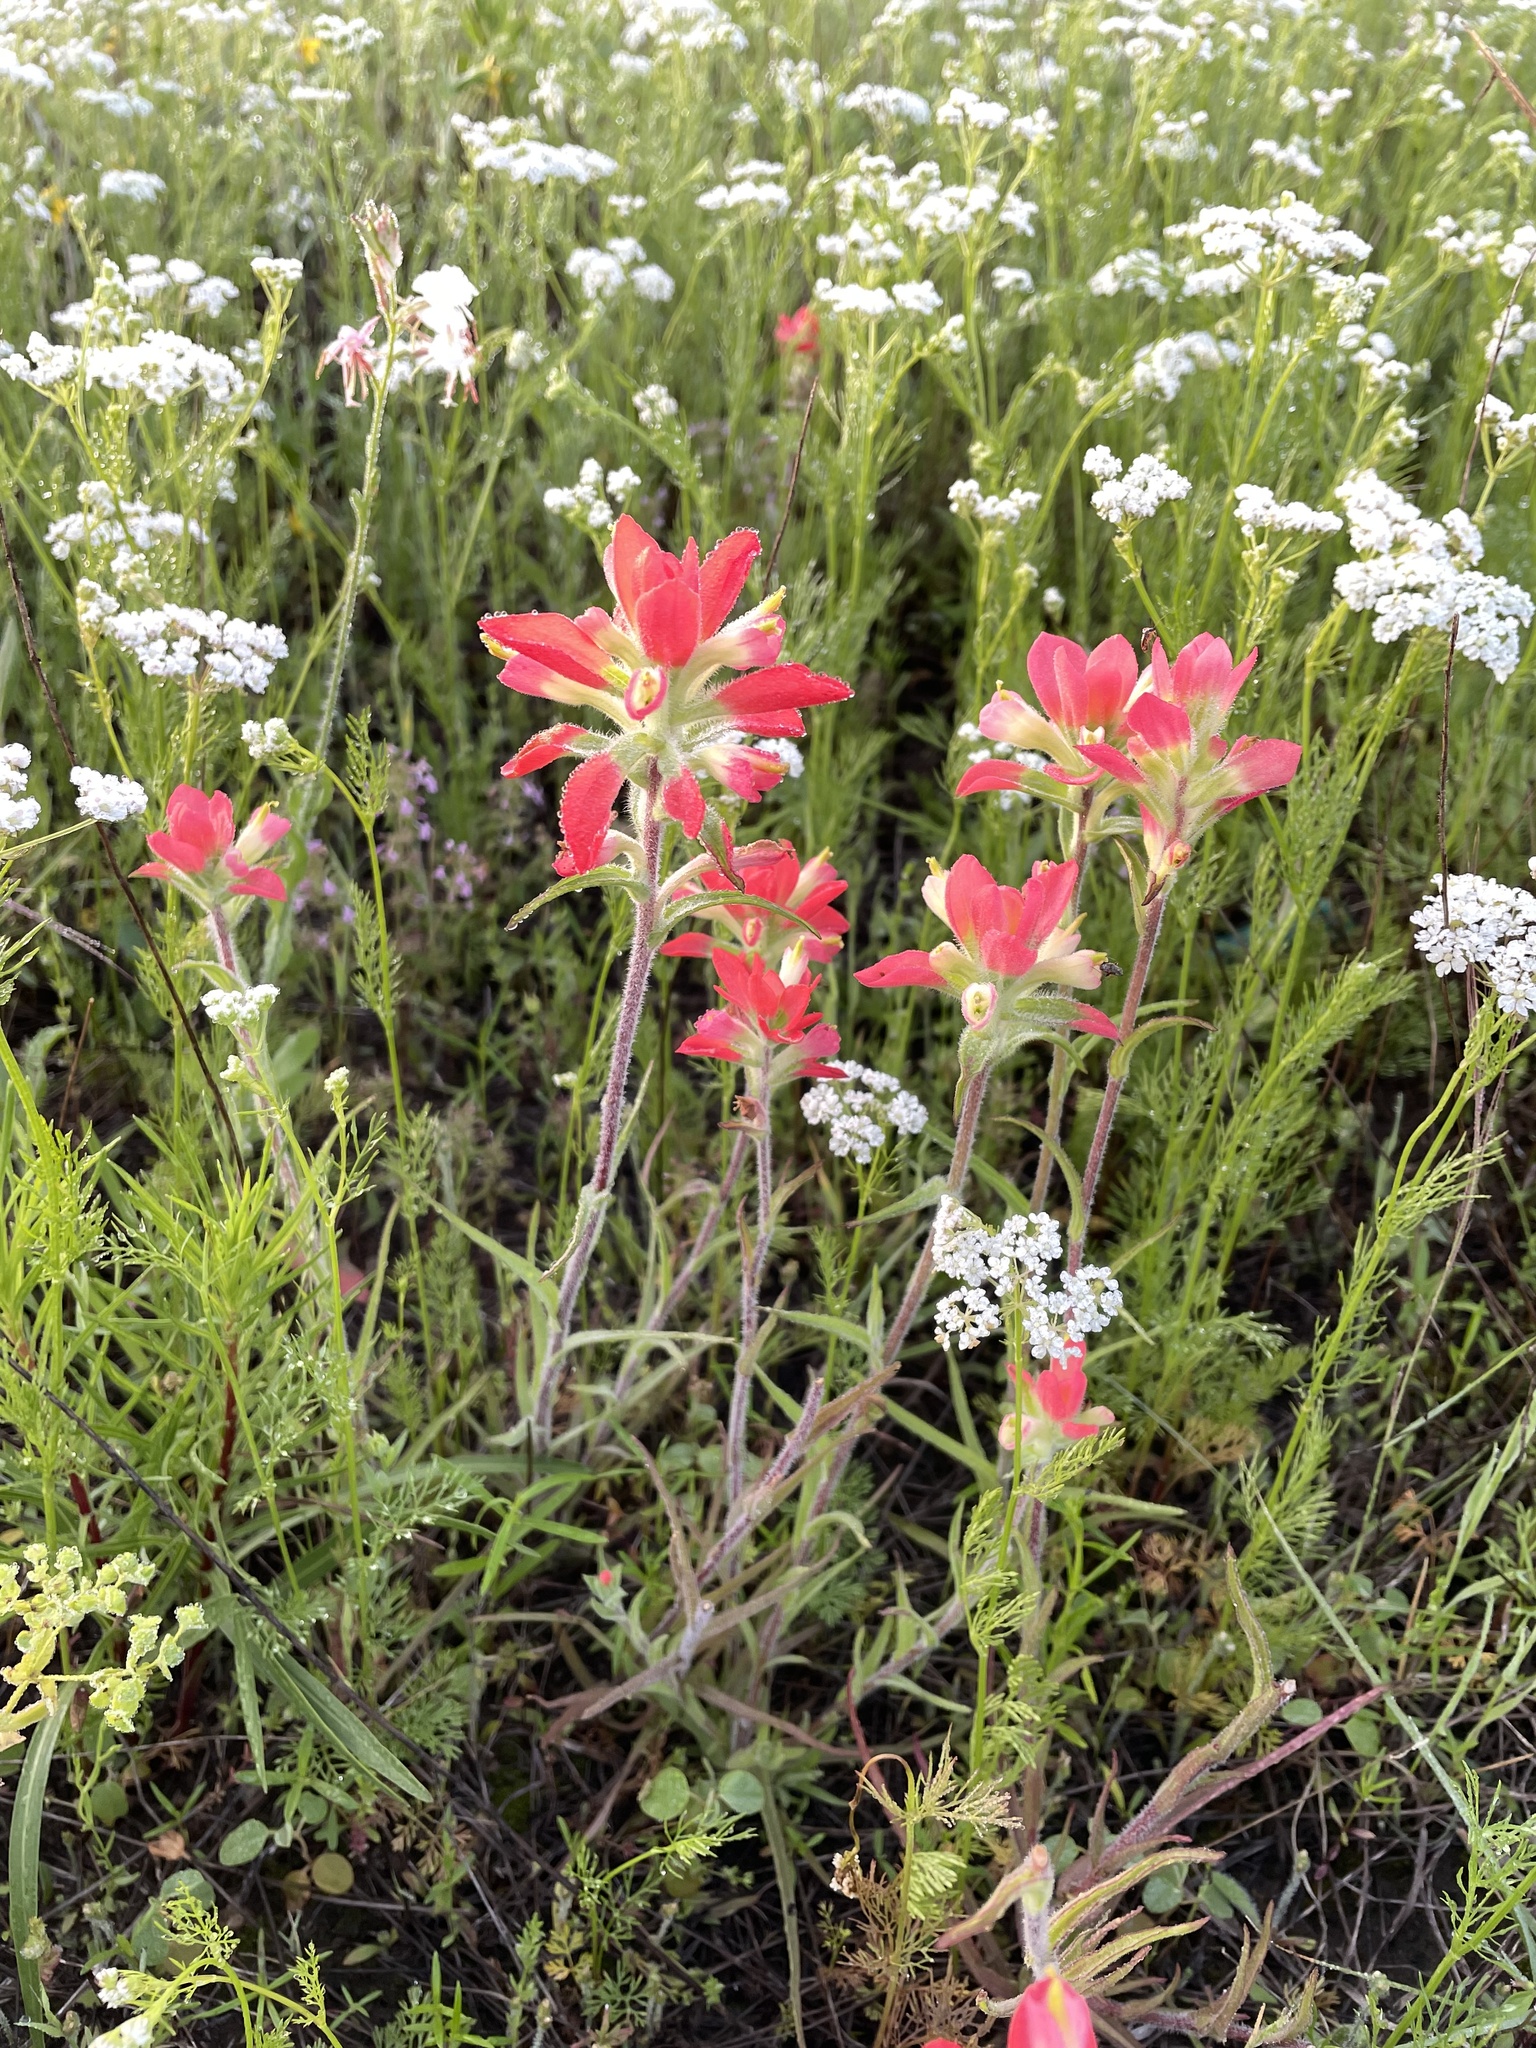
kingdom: Plantae
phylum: Tracheophyta
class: Magnoliopsida
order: Lamiales
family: Orobanchaceae
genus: Castilleja
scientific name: Castilleja indivisa
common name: Texas paintbrush
